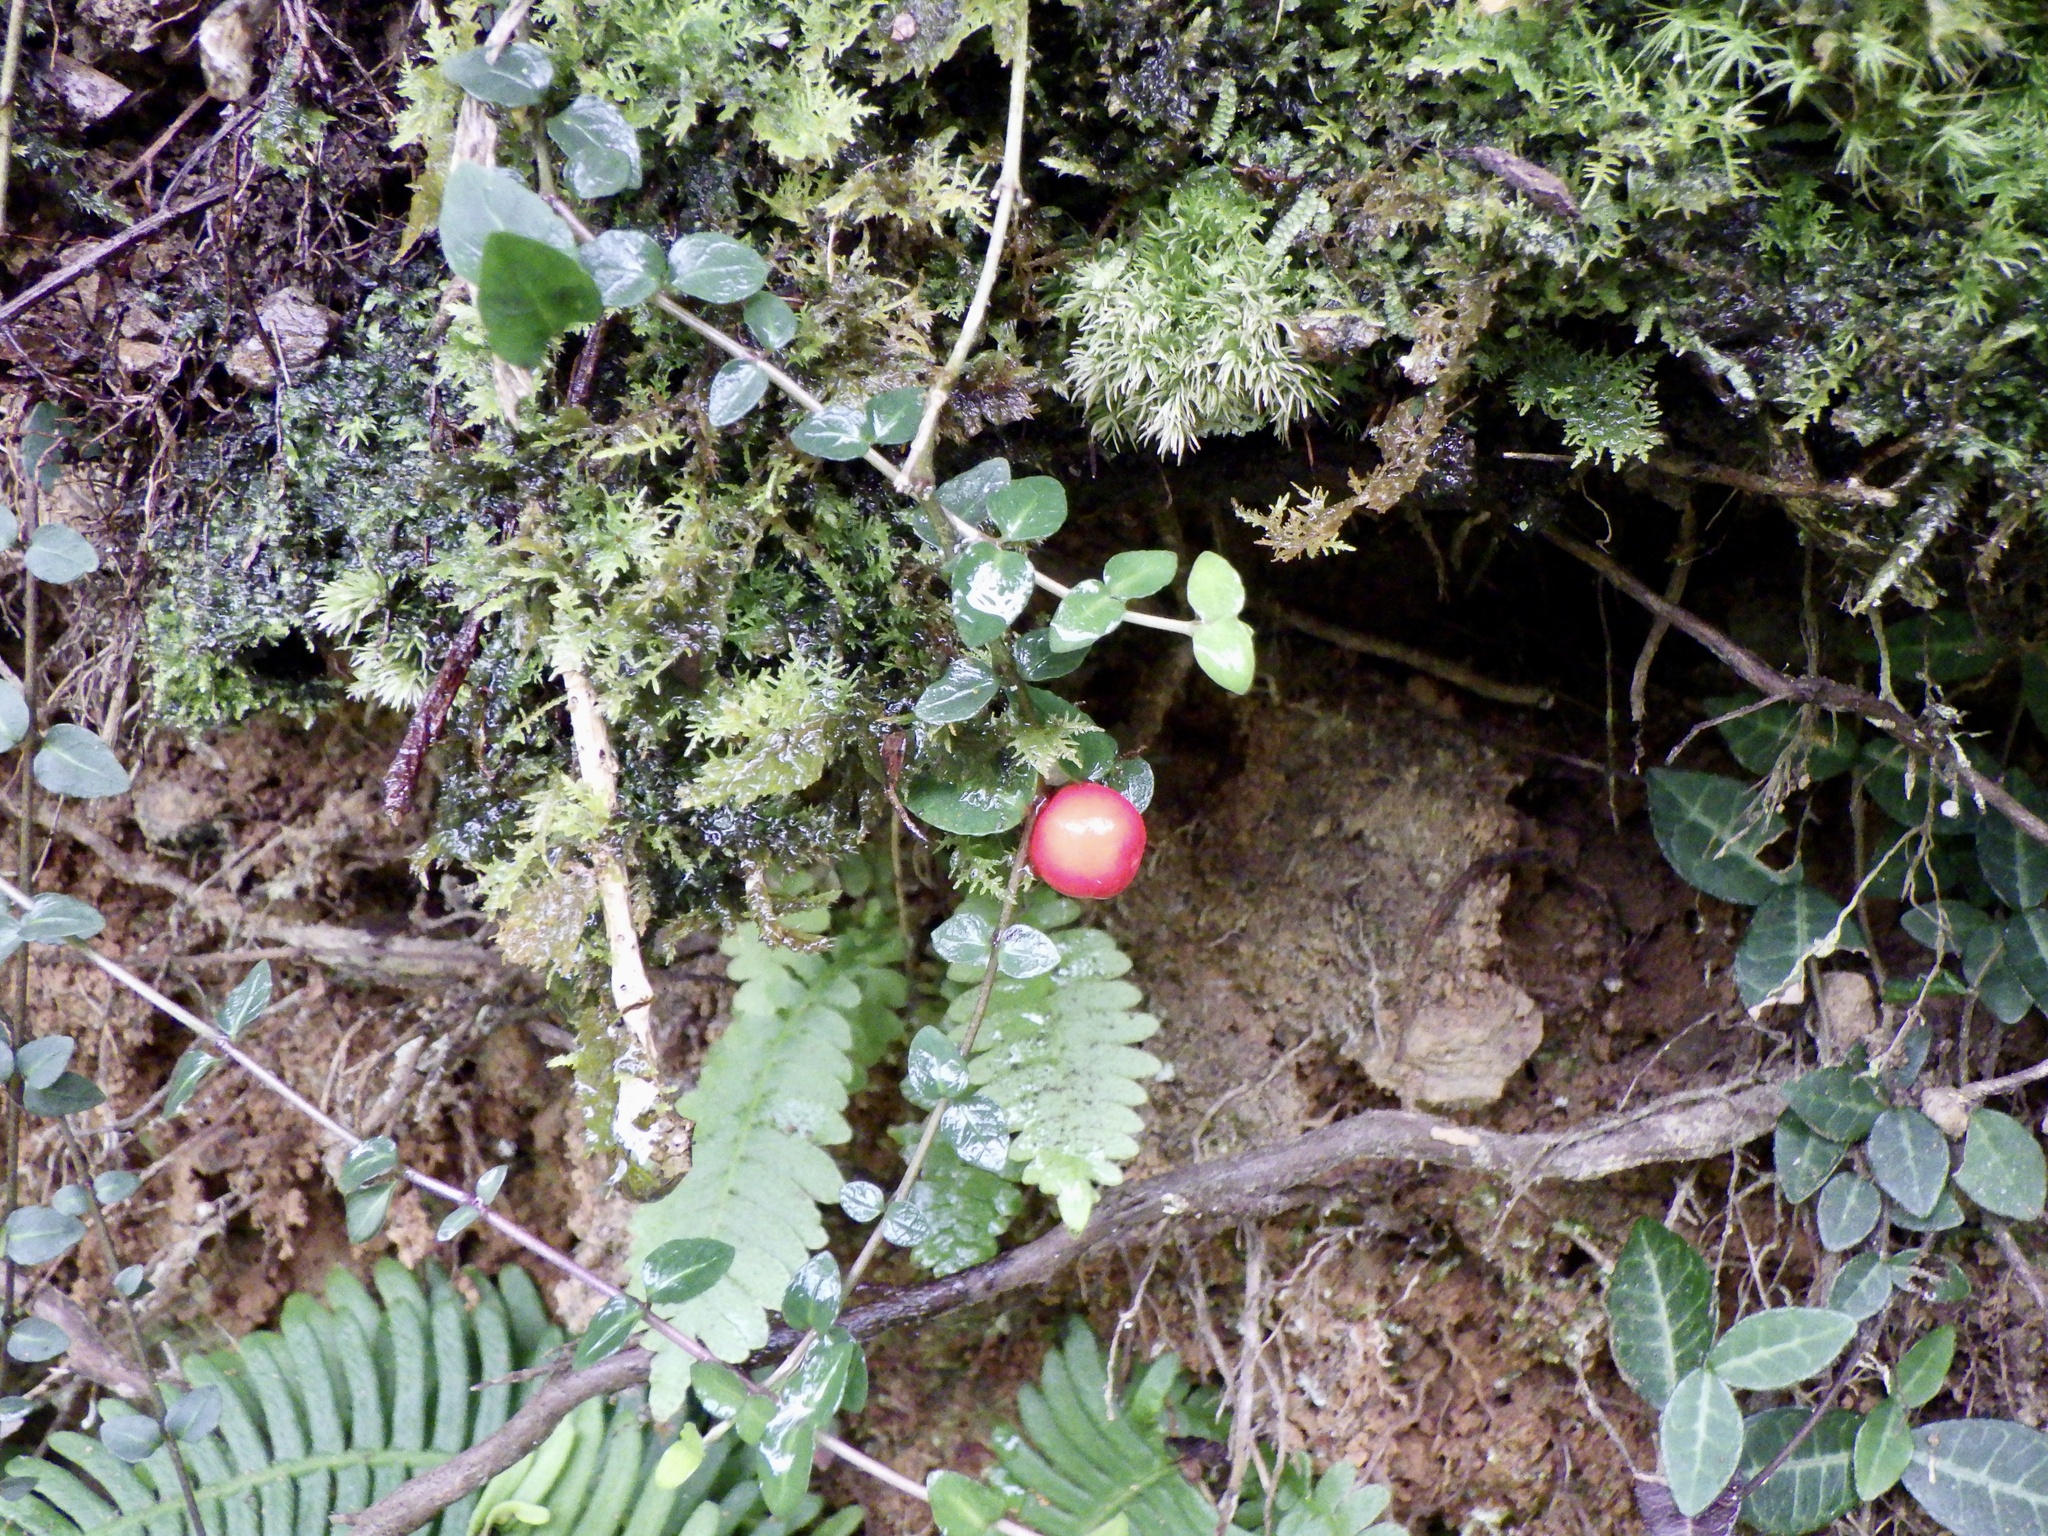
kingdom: Plantae
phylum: Tracheophyta
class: Magnoliopsida
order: Gentianales
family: Rubiaceae
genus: Mitchella
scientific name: Mitchella undulata
